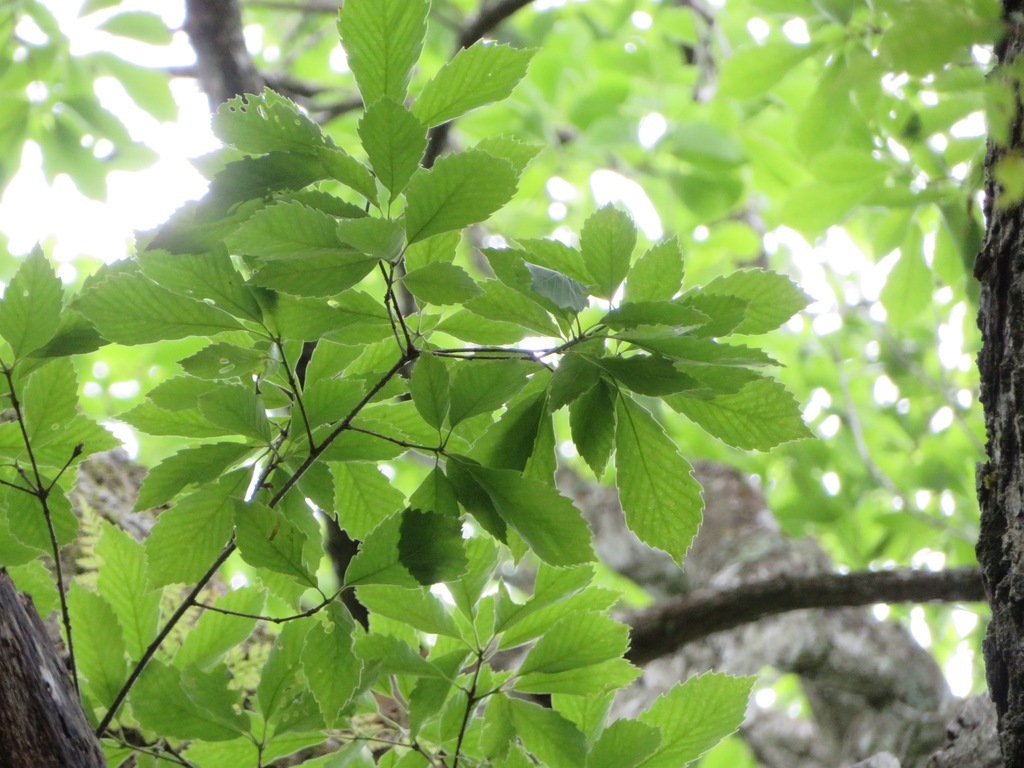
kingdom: Plantae
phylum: Tracheophyta
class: Magnoliopsida
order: Fagales
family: Fagaceae
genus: Quercus
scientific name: Quercus serrata
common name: Bao li
